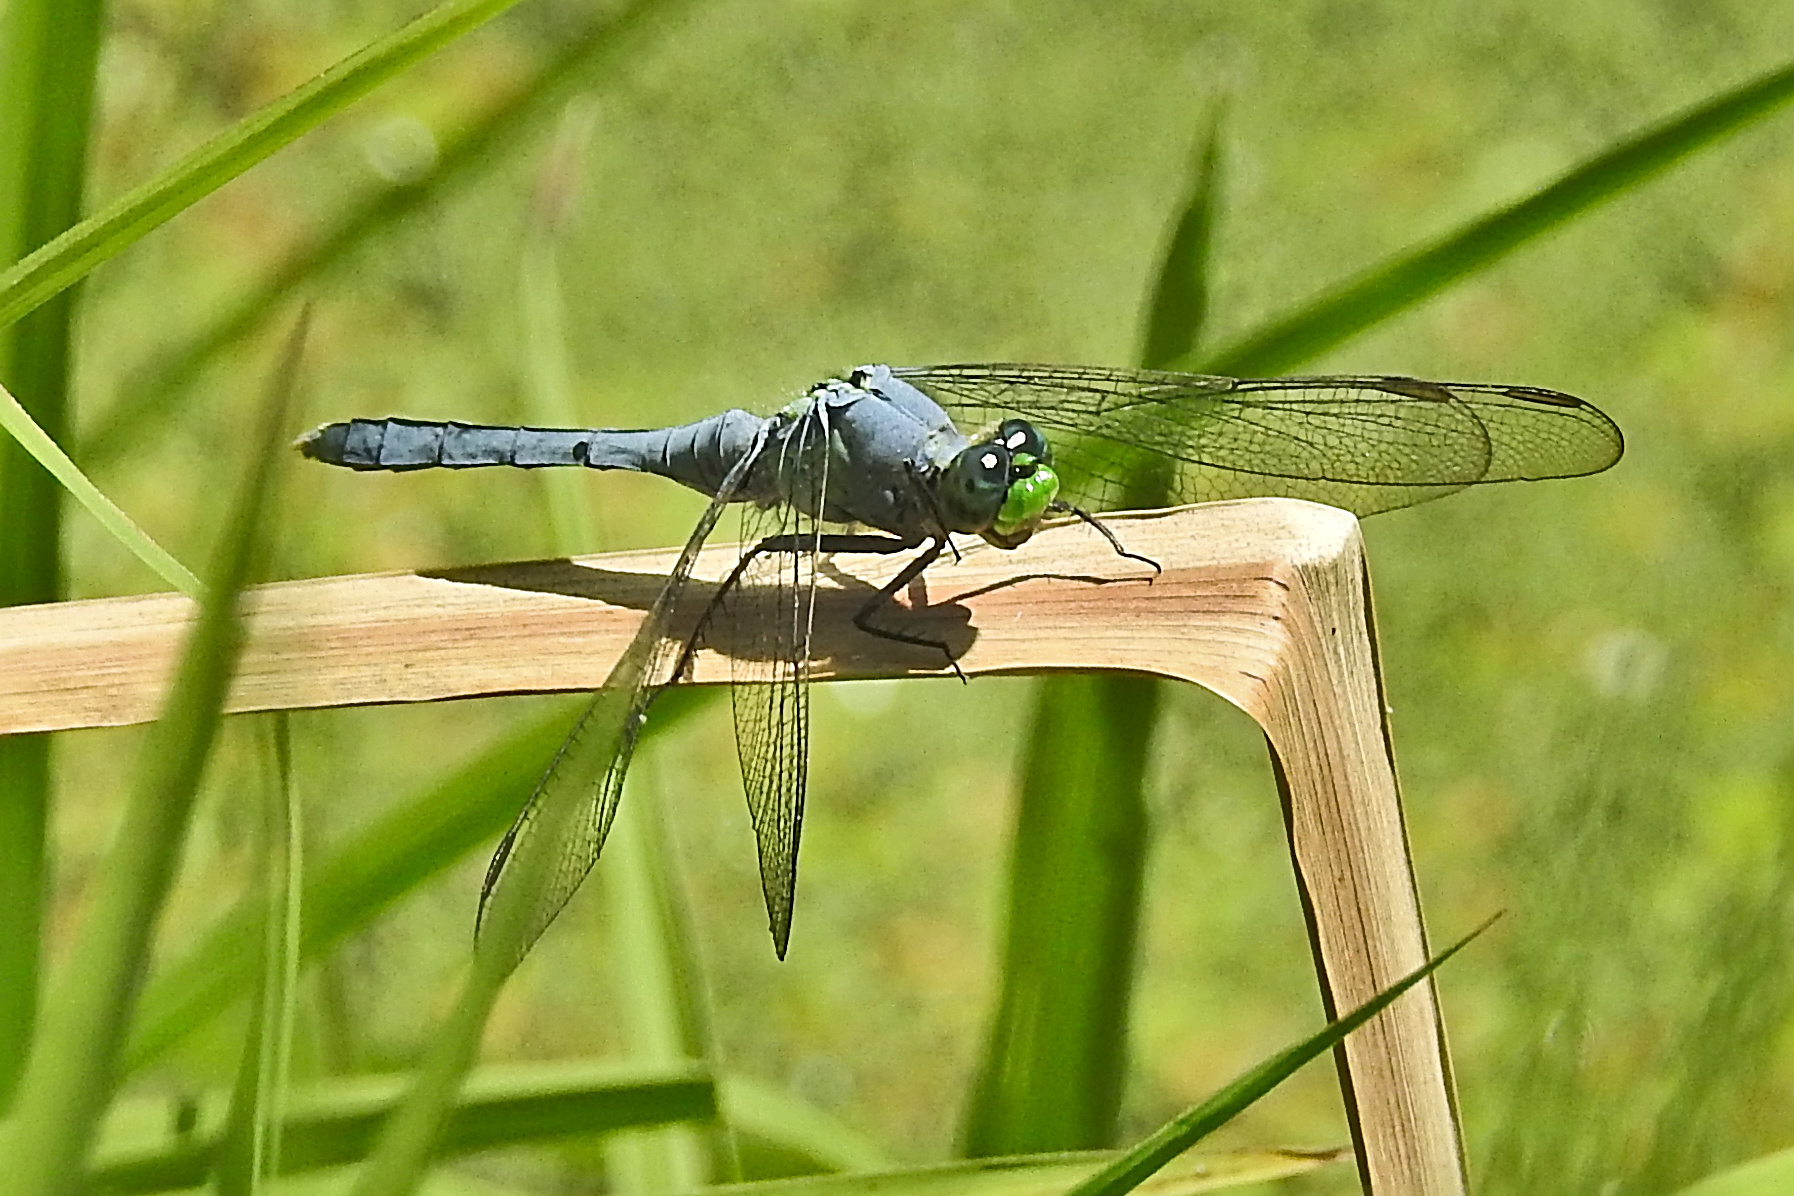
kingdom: Animalia
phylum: Arthropoda
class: Insecta
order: Odonata
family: Libellulidae
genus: Erythemis
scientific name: Erythemis simplicicollis
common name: Eastern pondhawk
